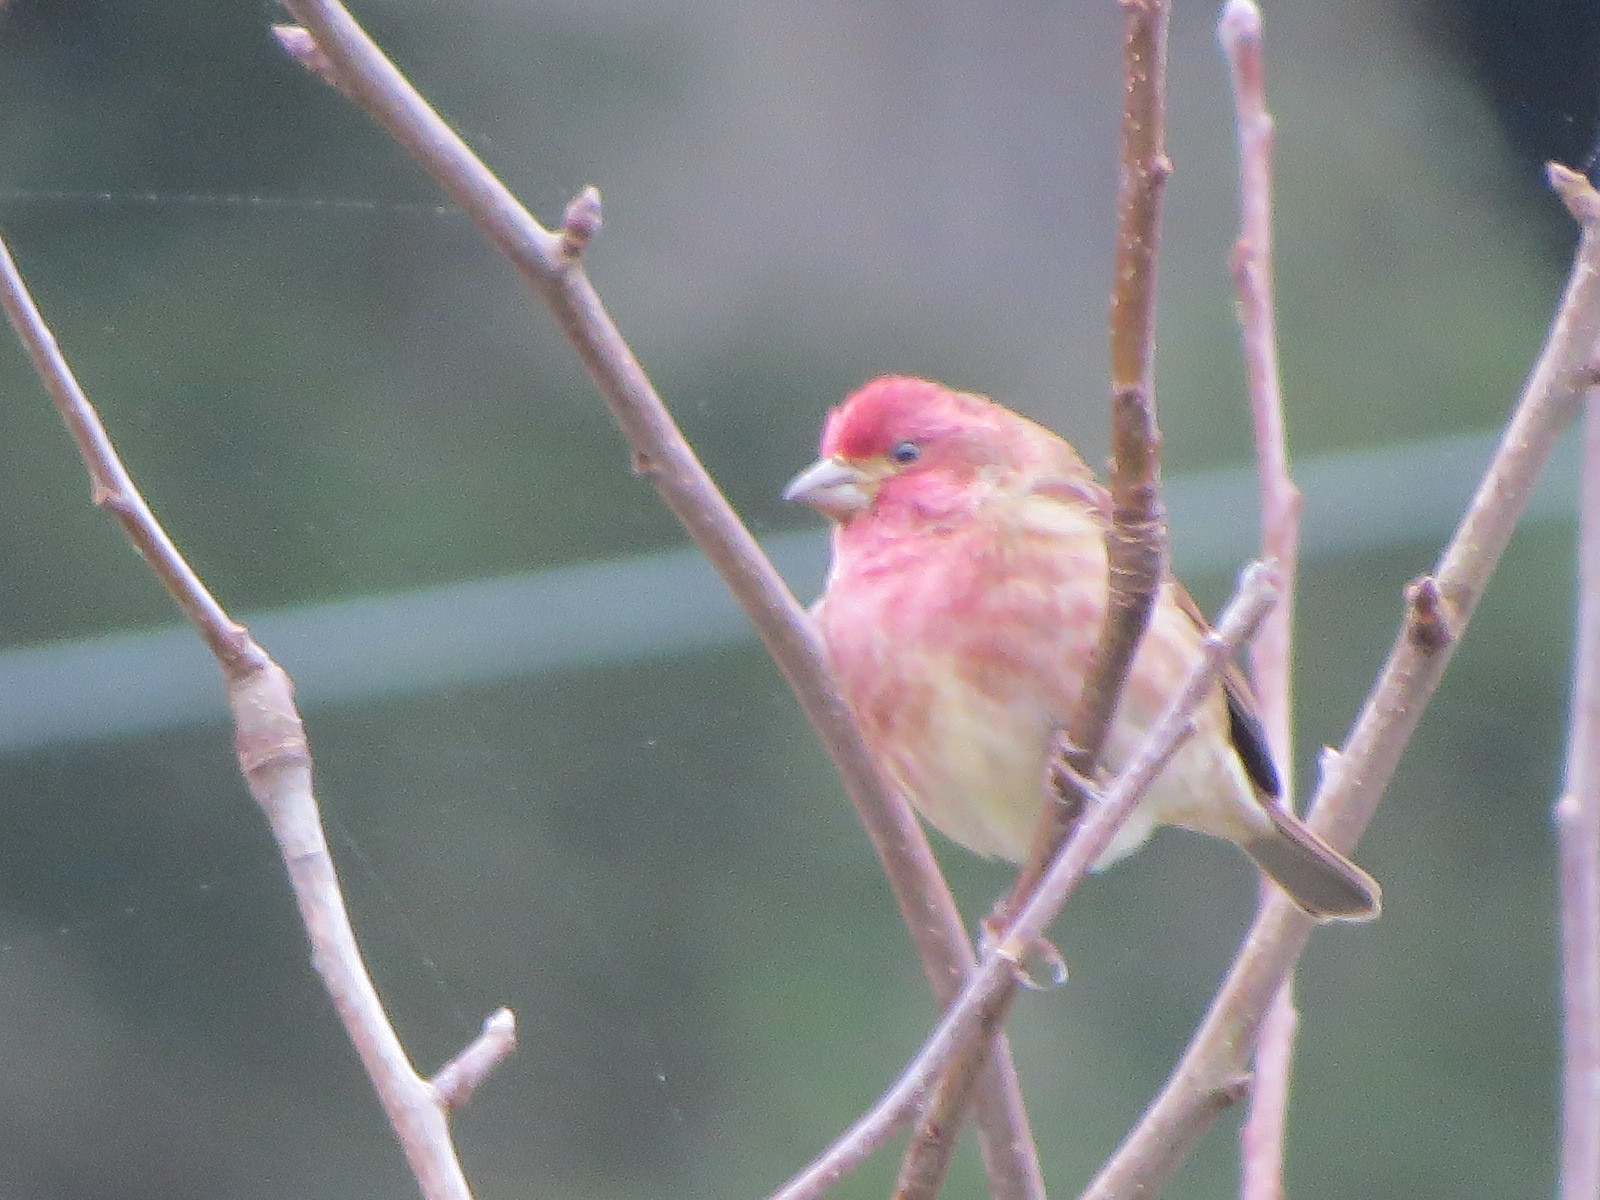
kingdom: Animalia
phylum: Chordata
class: Aves
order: Passeriformes
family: Fringillidae
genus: Haemorhous
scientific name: Haemorhous purpureus
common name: Purple finch
